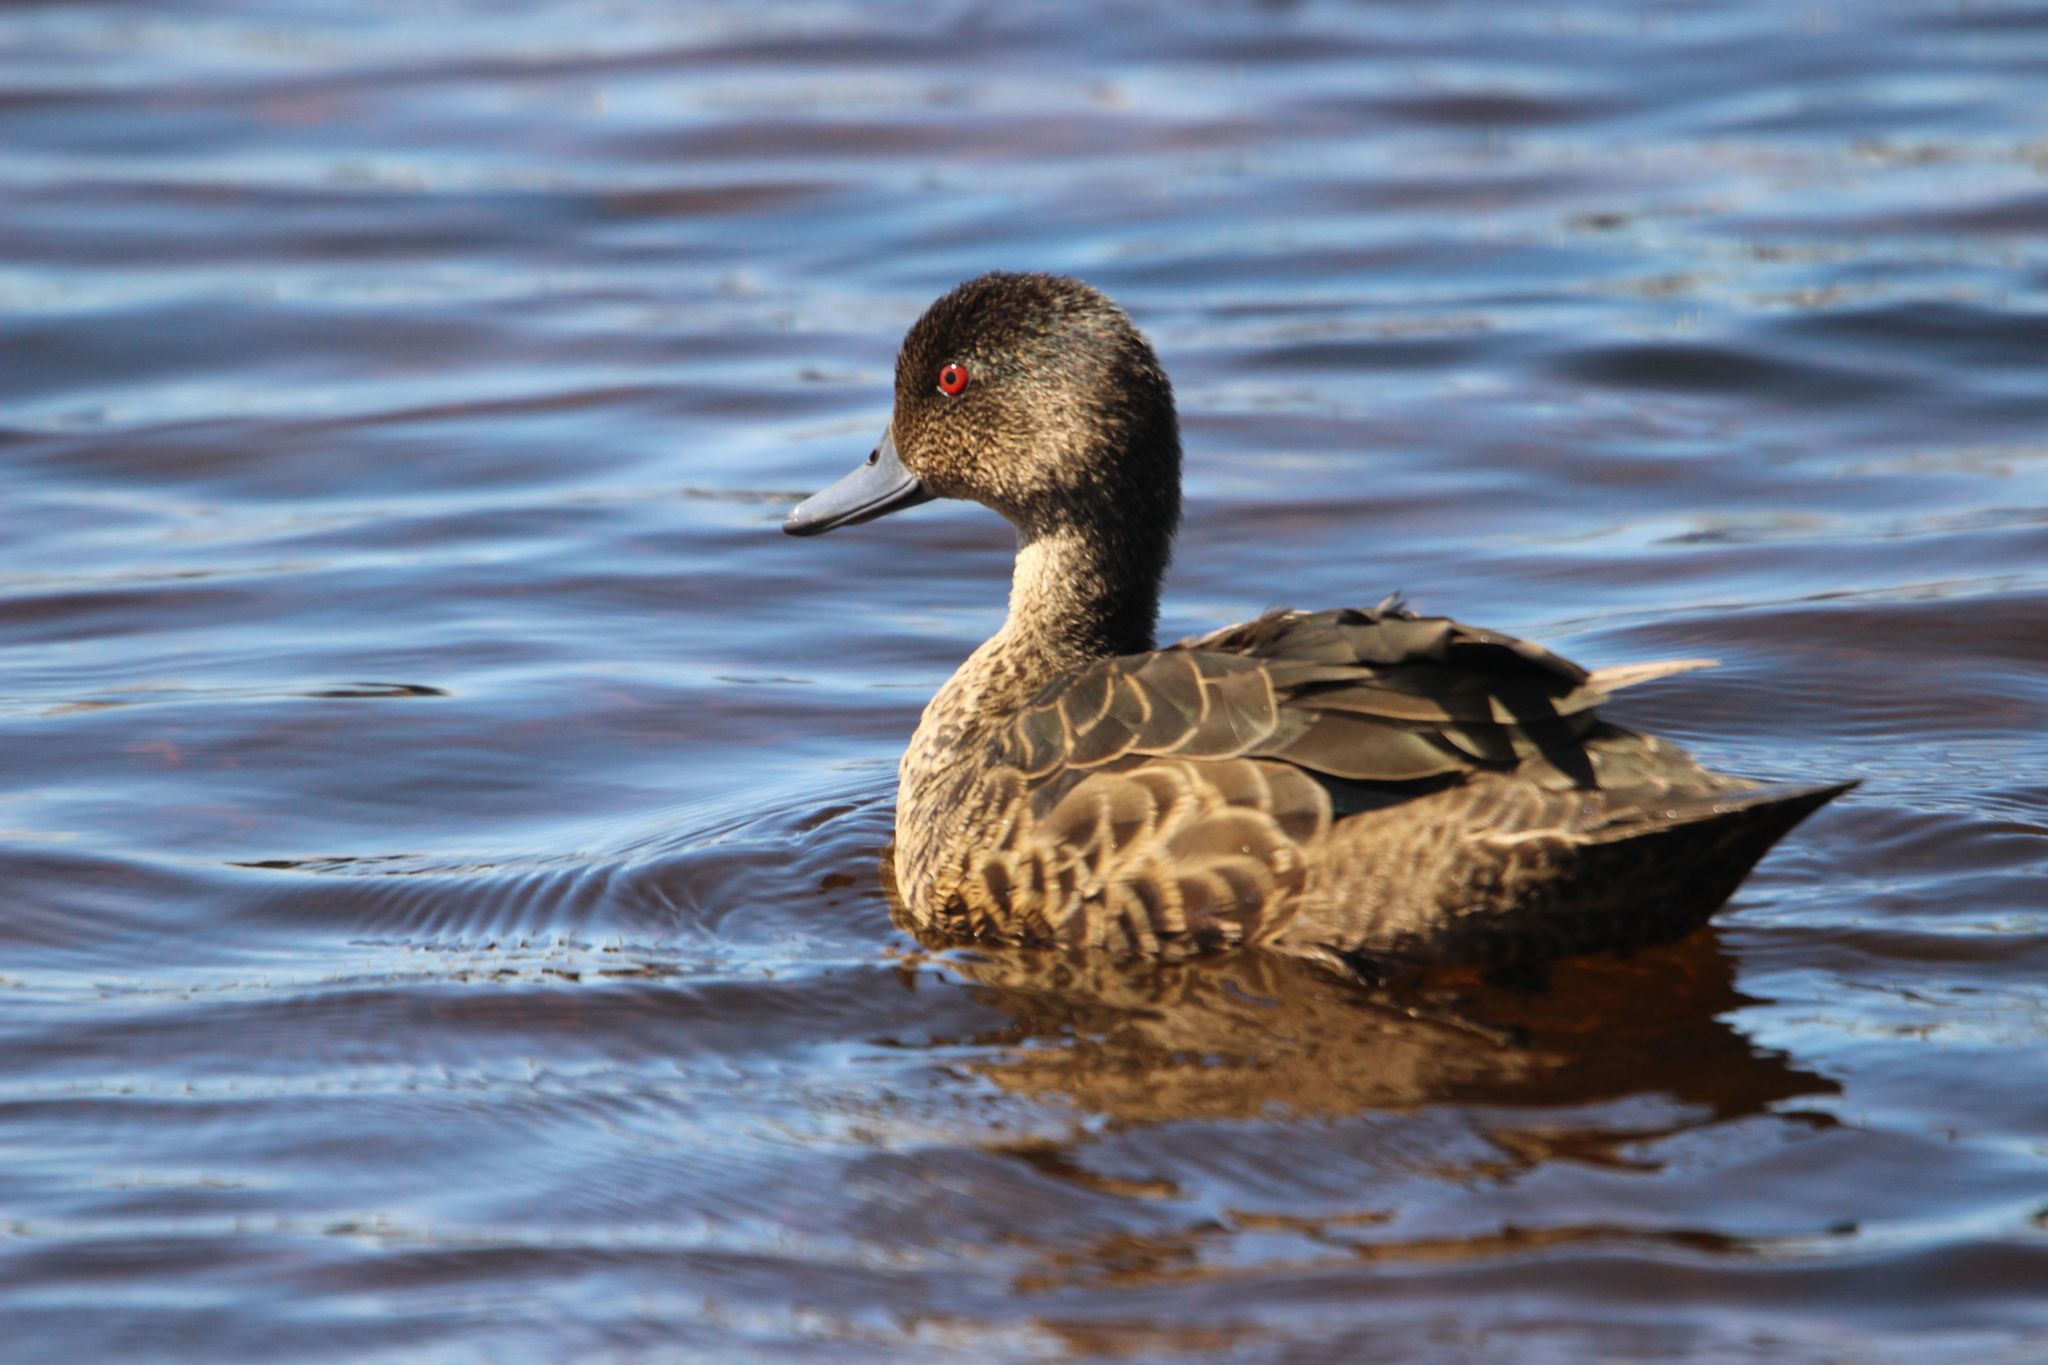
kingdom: Animalia
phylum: Chordata
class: Aves
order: Anseriformes
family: Anatidae
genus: Anas
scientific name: Anas castanea
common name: Chestnut teal
